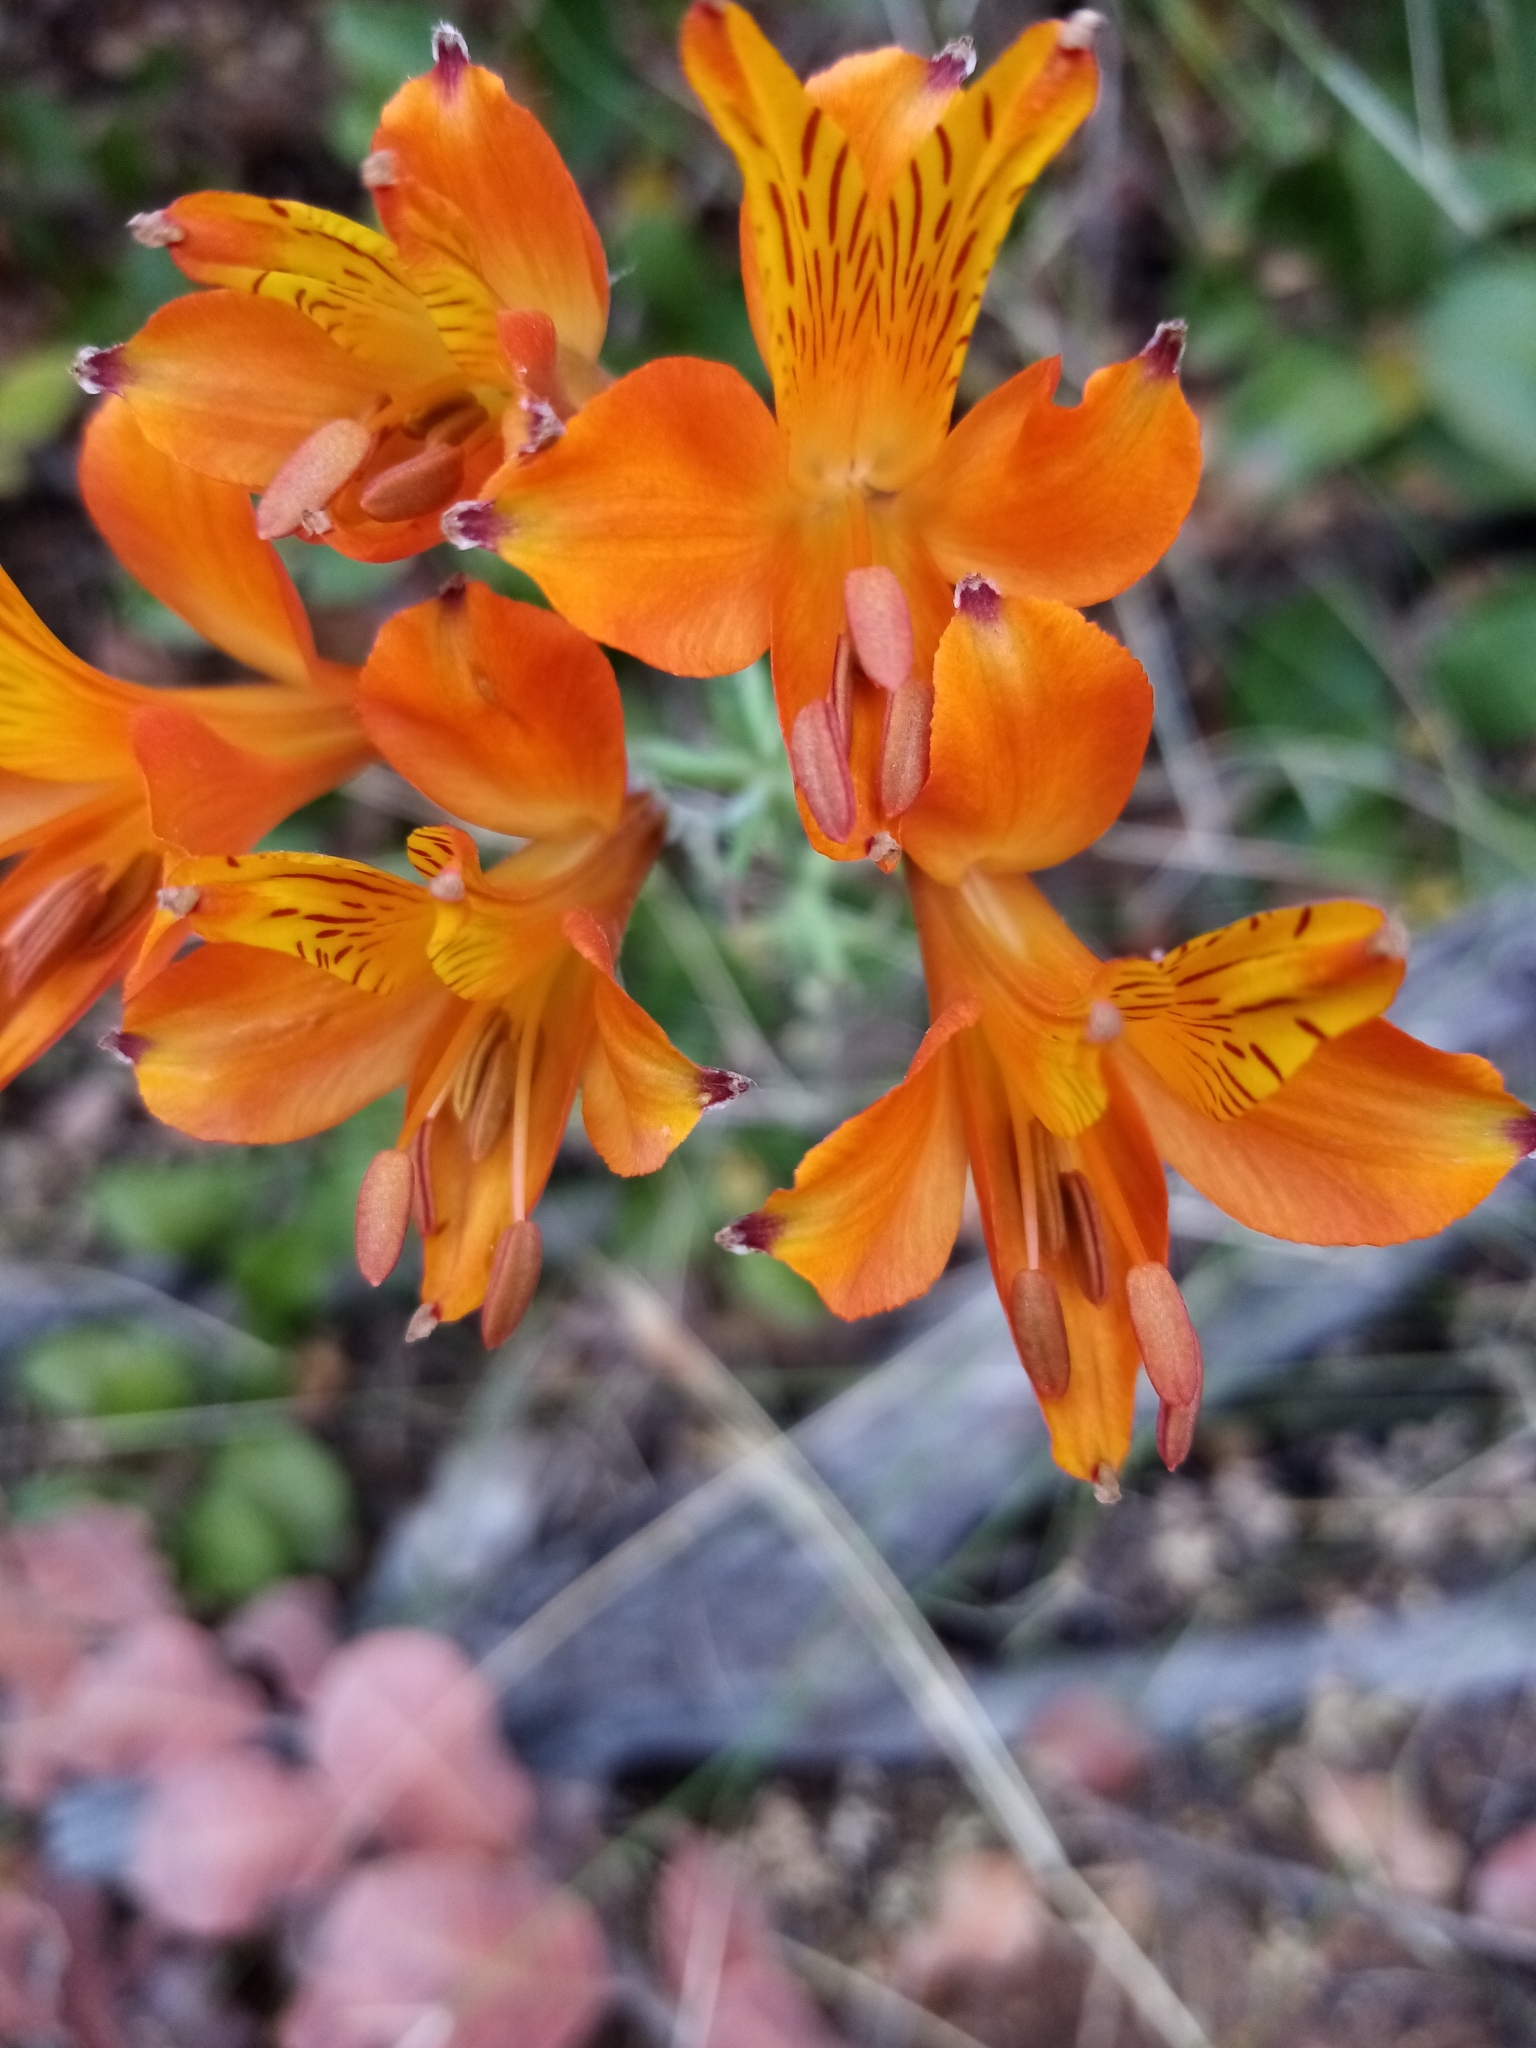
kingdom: Plantae
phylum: Tracheophyta
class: Liliopsida
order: Liliales
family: Alstroemeriaceae
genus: Alstroemeria
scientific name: Alstroemeria ligtu
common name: St. martin's-flower
